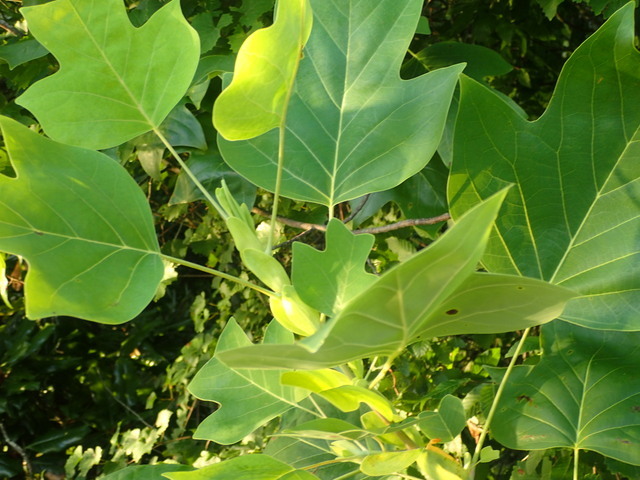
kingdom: Plantae
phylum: Tracheophyta
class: Magnoliopsida
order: Magnoliales
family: Magnoliaceae
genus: Liriodendron
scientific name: Liriodendron tulipifera
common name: Tulip tree
